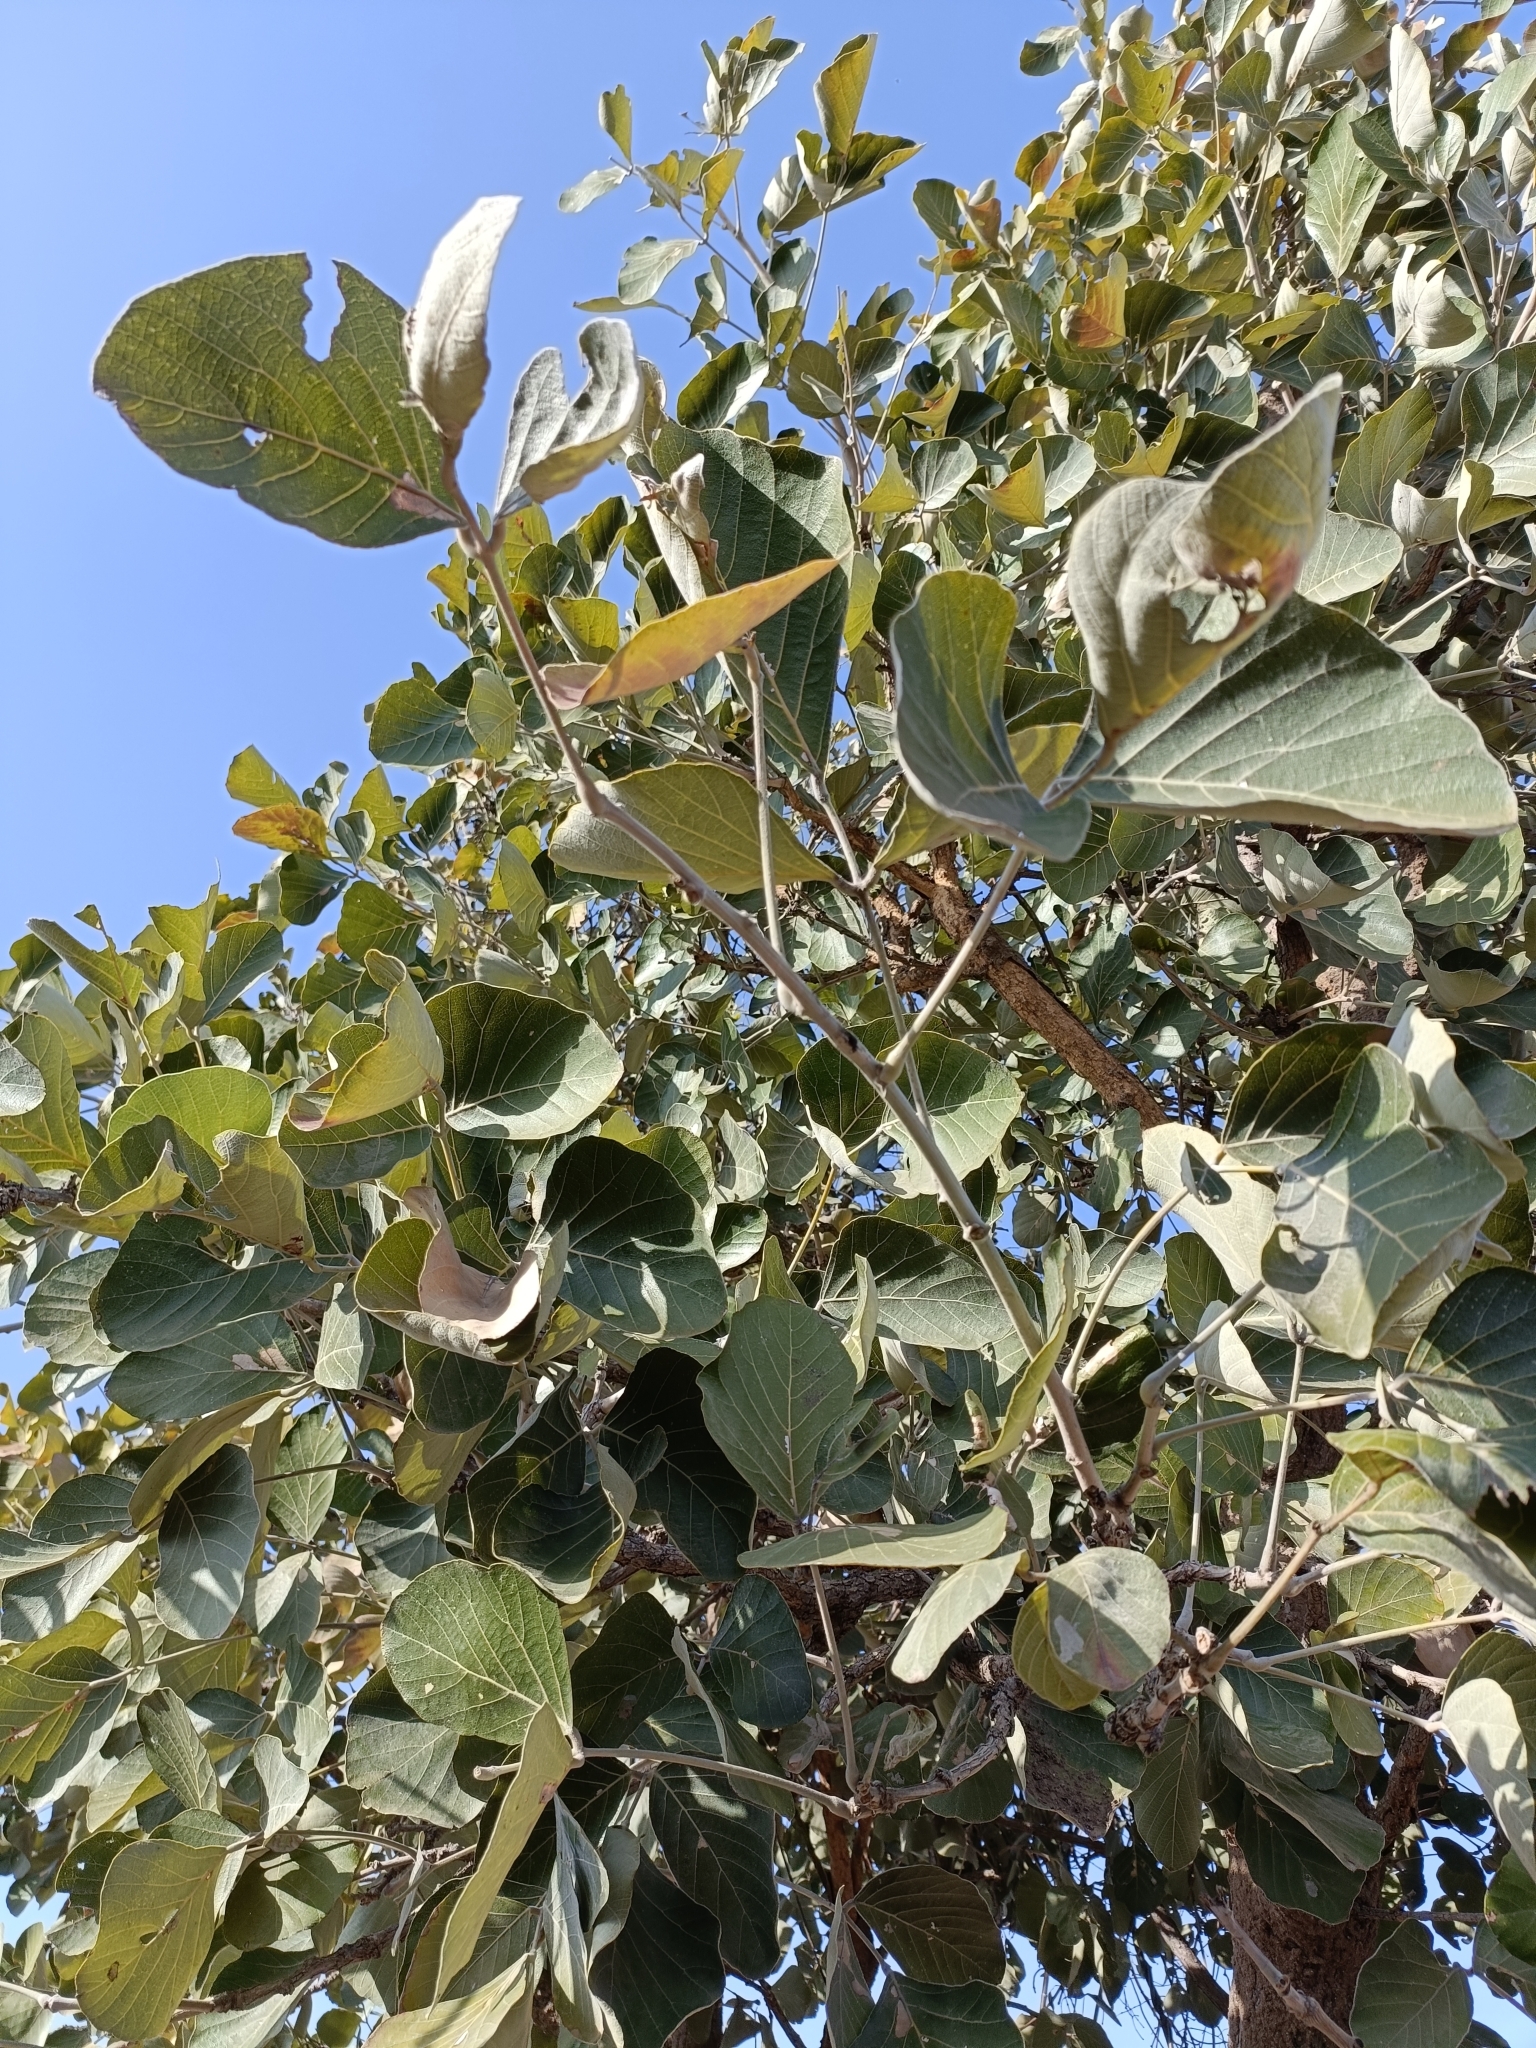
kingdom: Plantae
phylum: Tracheophyta
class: Magnoliopsida
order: Fabales
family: Fabaceae
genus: Butea
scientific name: Butea monosperma
